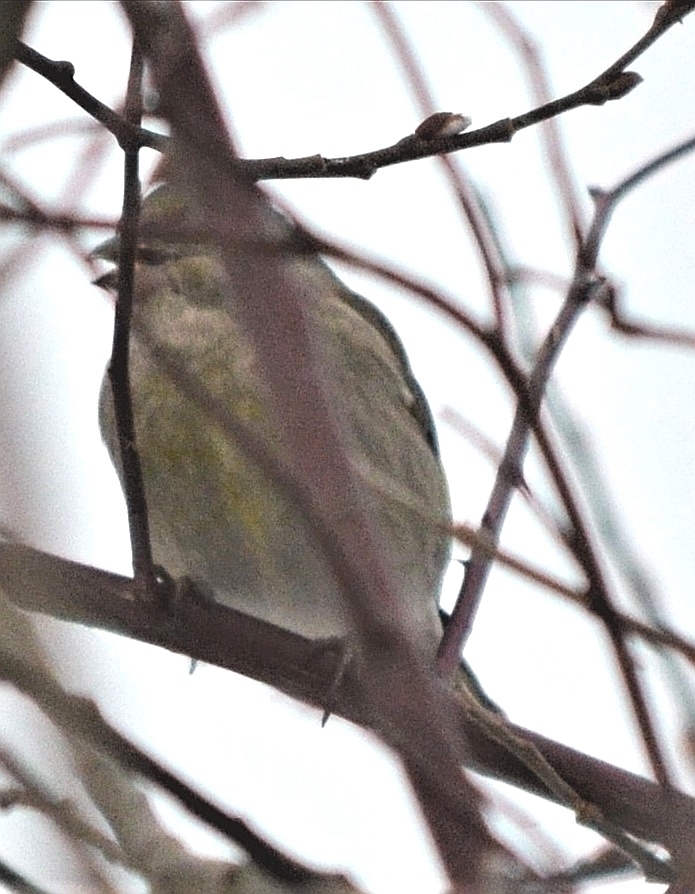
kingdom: Plantae
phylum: Tracheophyta
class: Liliopsida
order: Poales
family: Poaceae
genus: Chloris
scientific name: Chloris chloris
